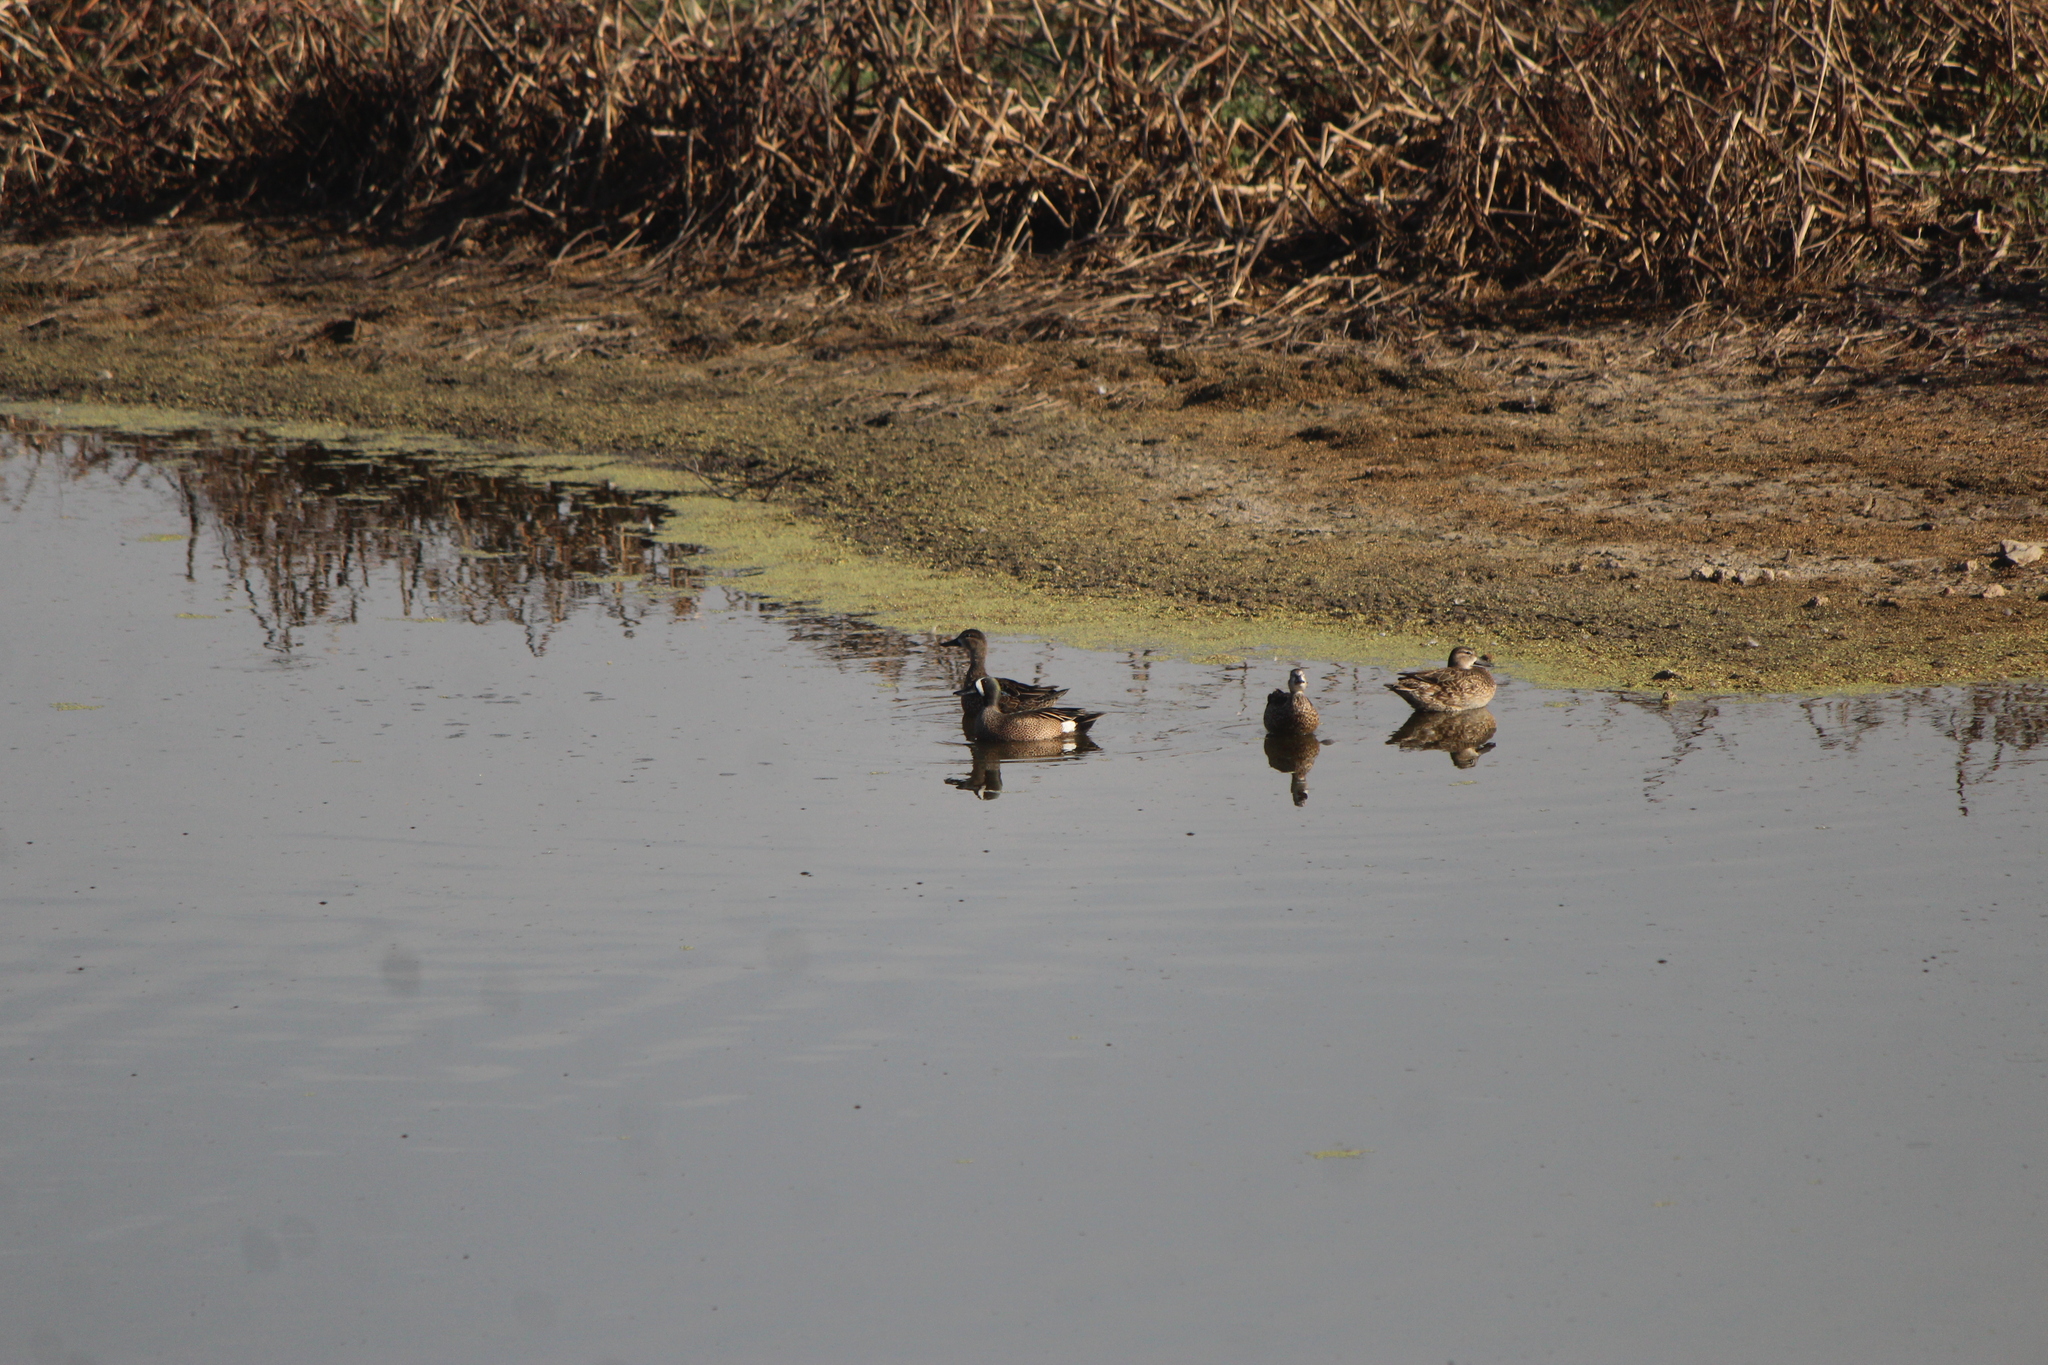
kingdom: Animalia
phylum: Chordata
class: Aves
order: Anseriformes
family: Anatidae
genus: Spatula
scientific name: Spatula discors
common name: Blue-winged teal
